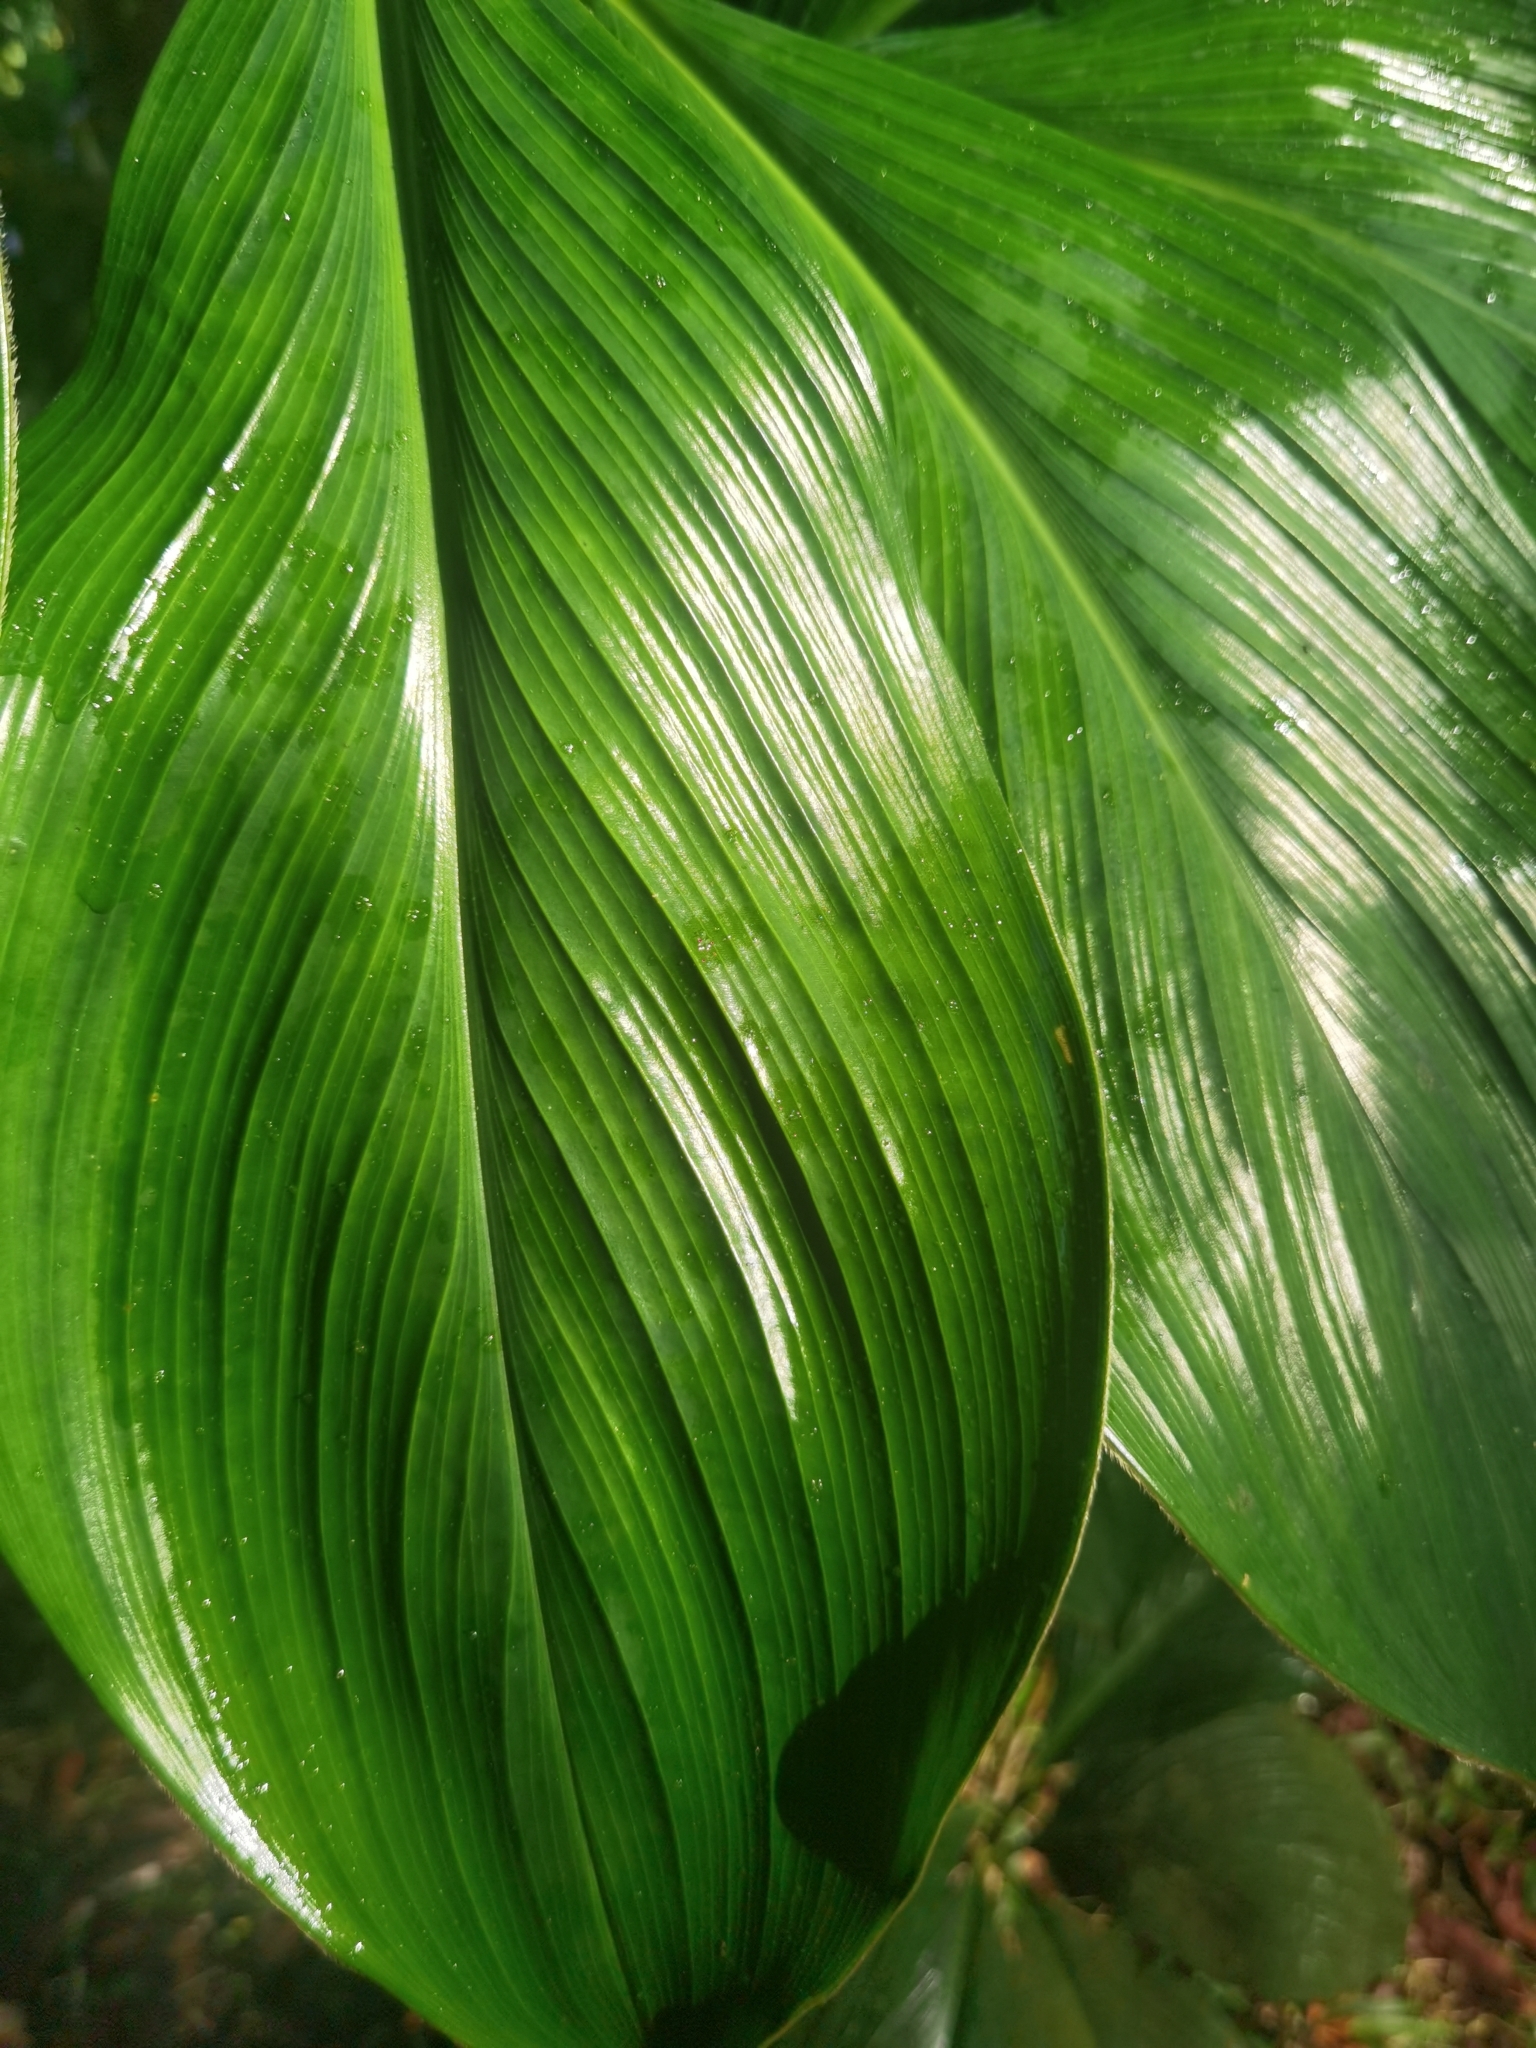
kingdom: Plantae
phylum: Tracheophyta
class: Liliopsida
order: Zingiberales
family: Costaceae
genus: Costus
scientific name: Costus plicatus
